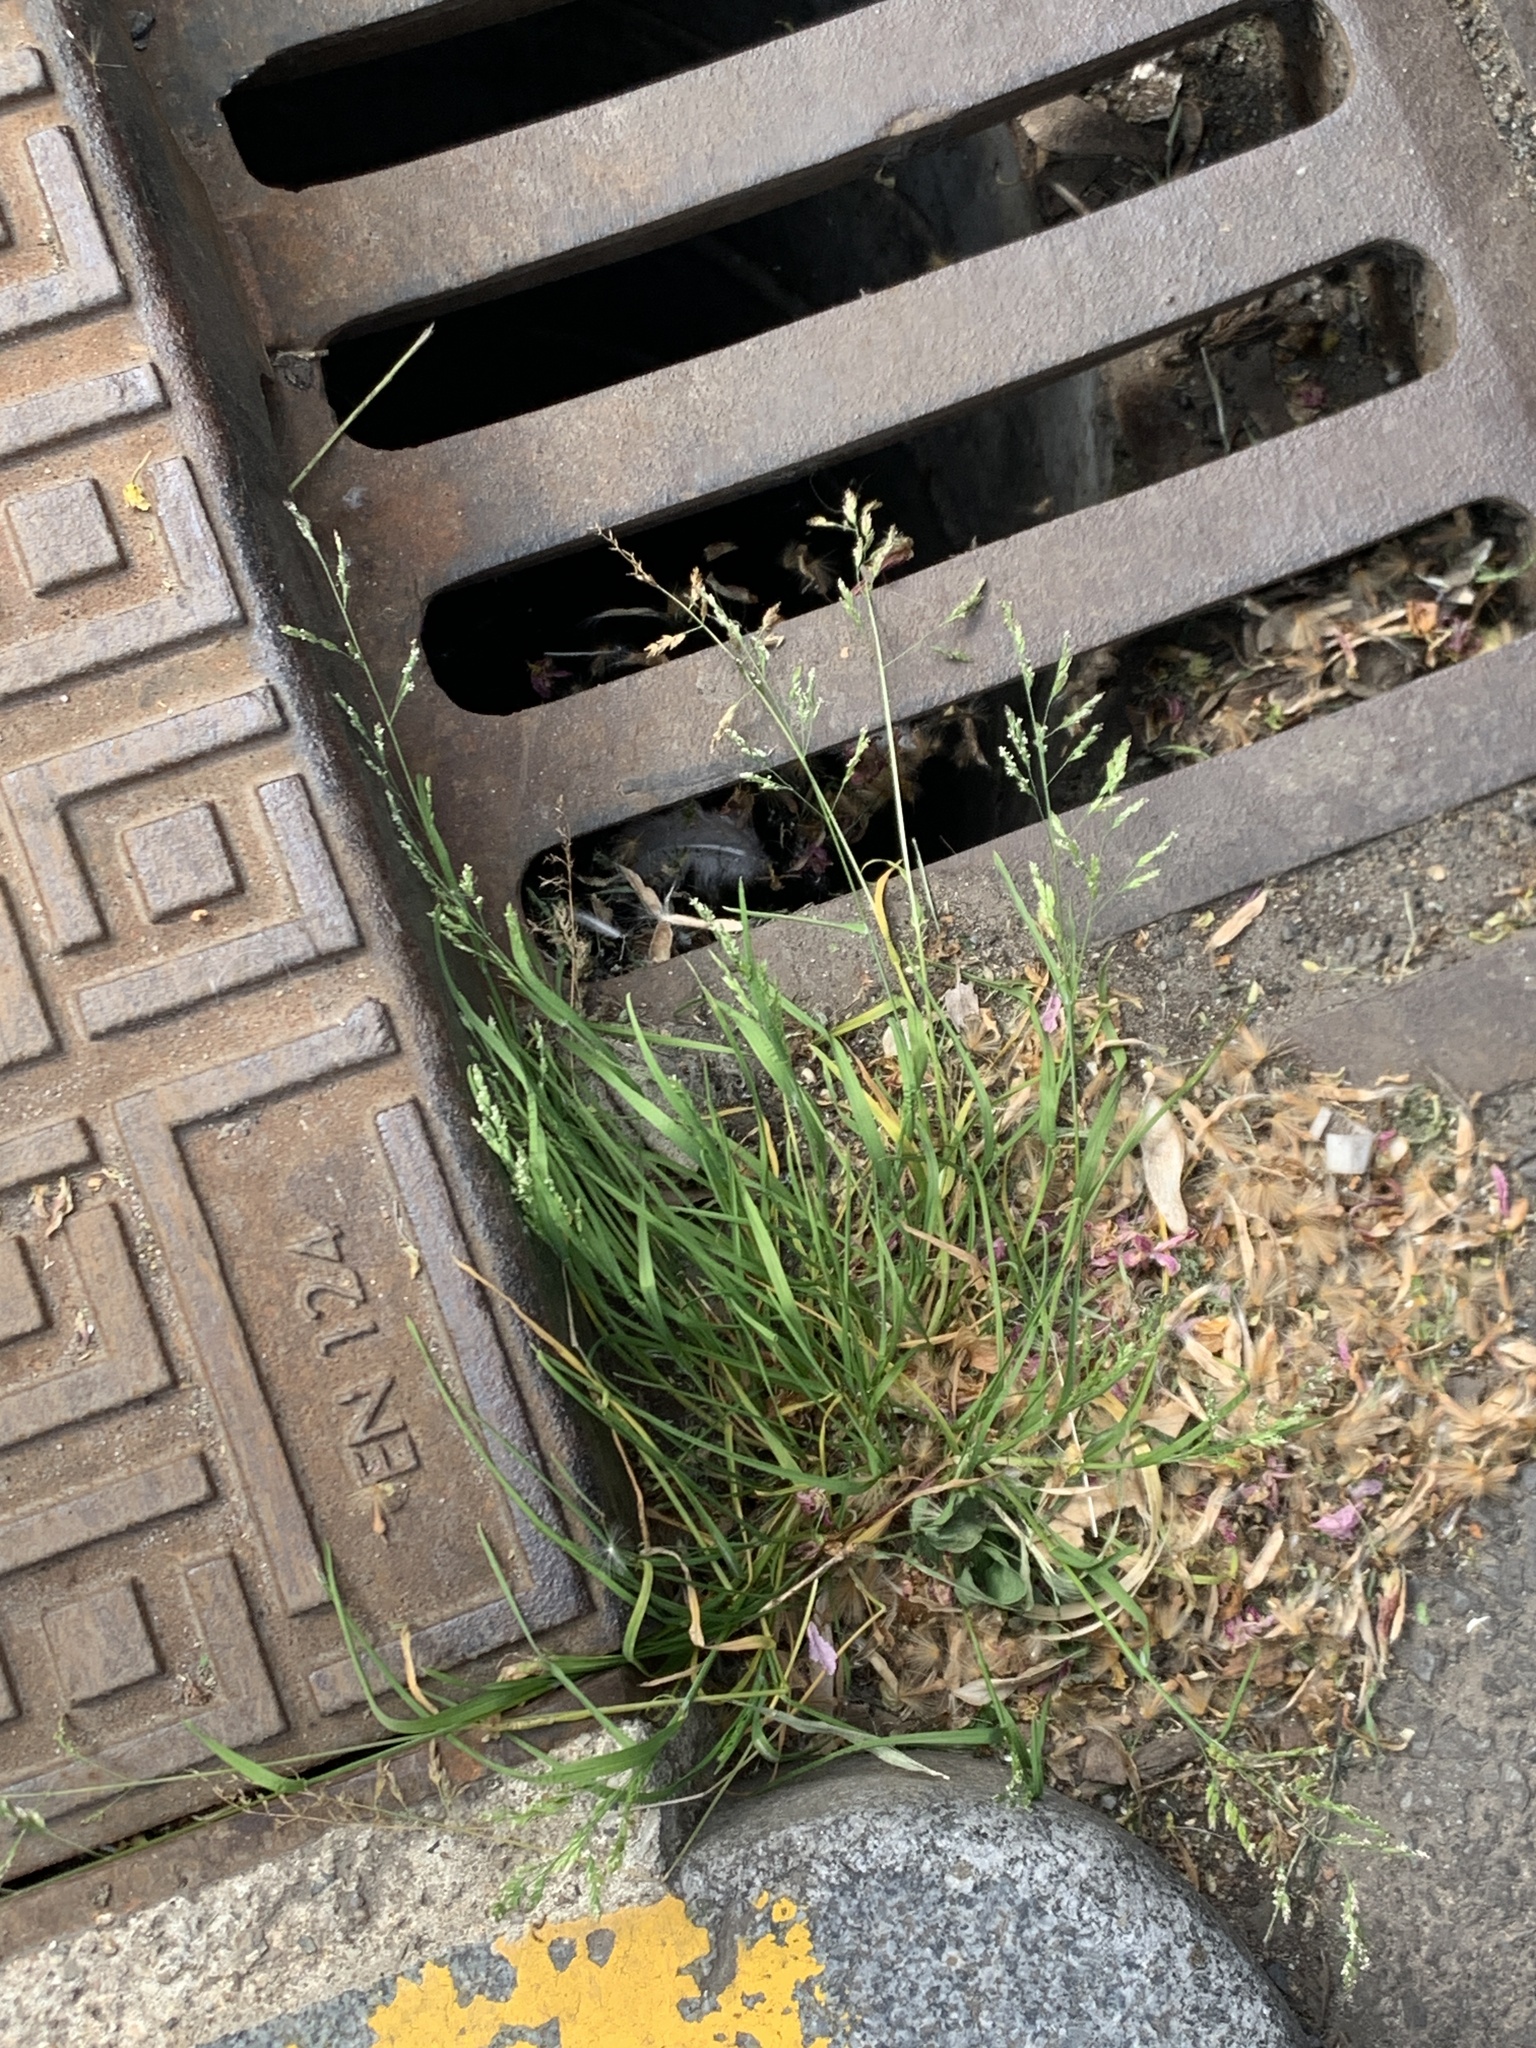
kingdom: Plantae
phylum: Tracheophyta
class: Liliopsida
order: Poales
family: Poaceae
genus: Poa
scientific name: Poa annua
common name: Annual bluegrass
